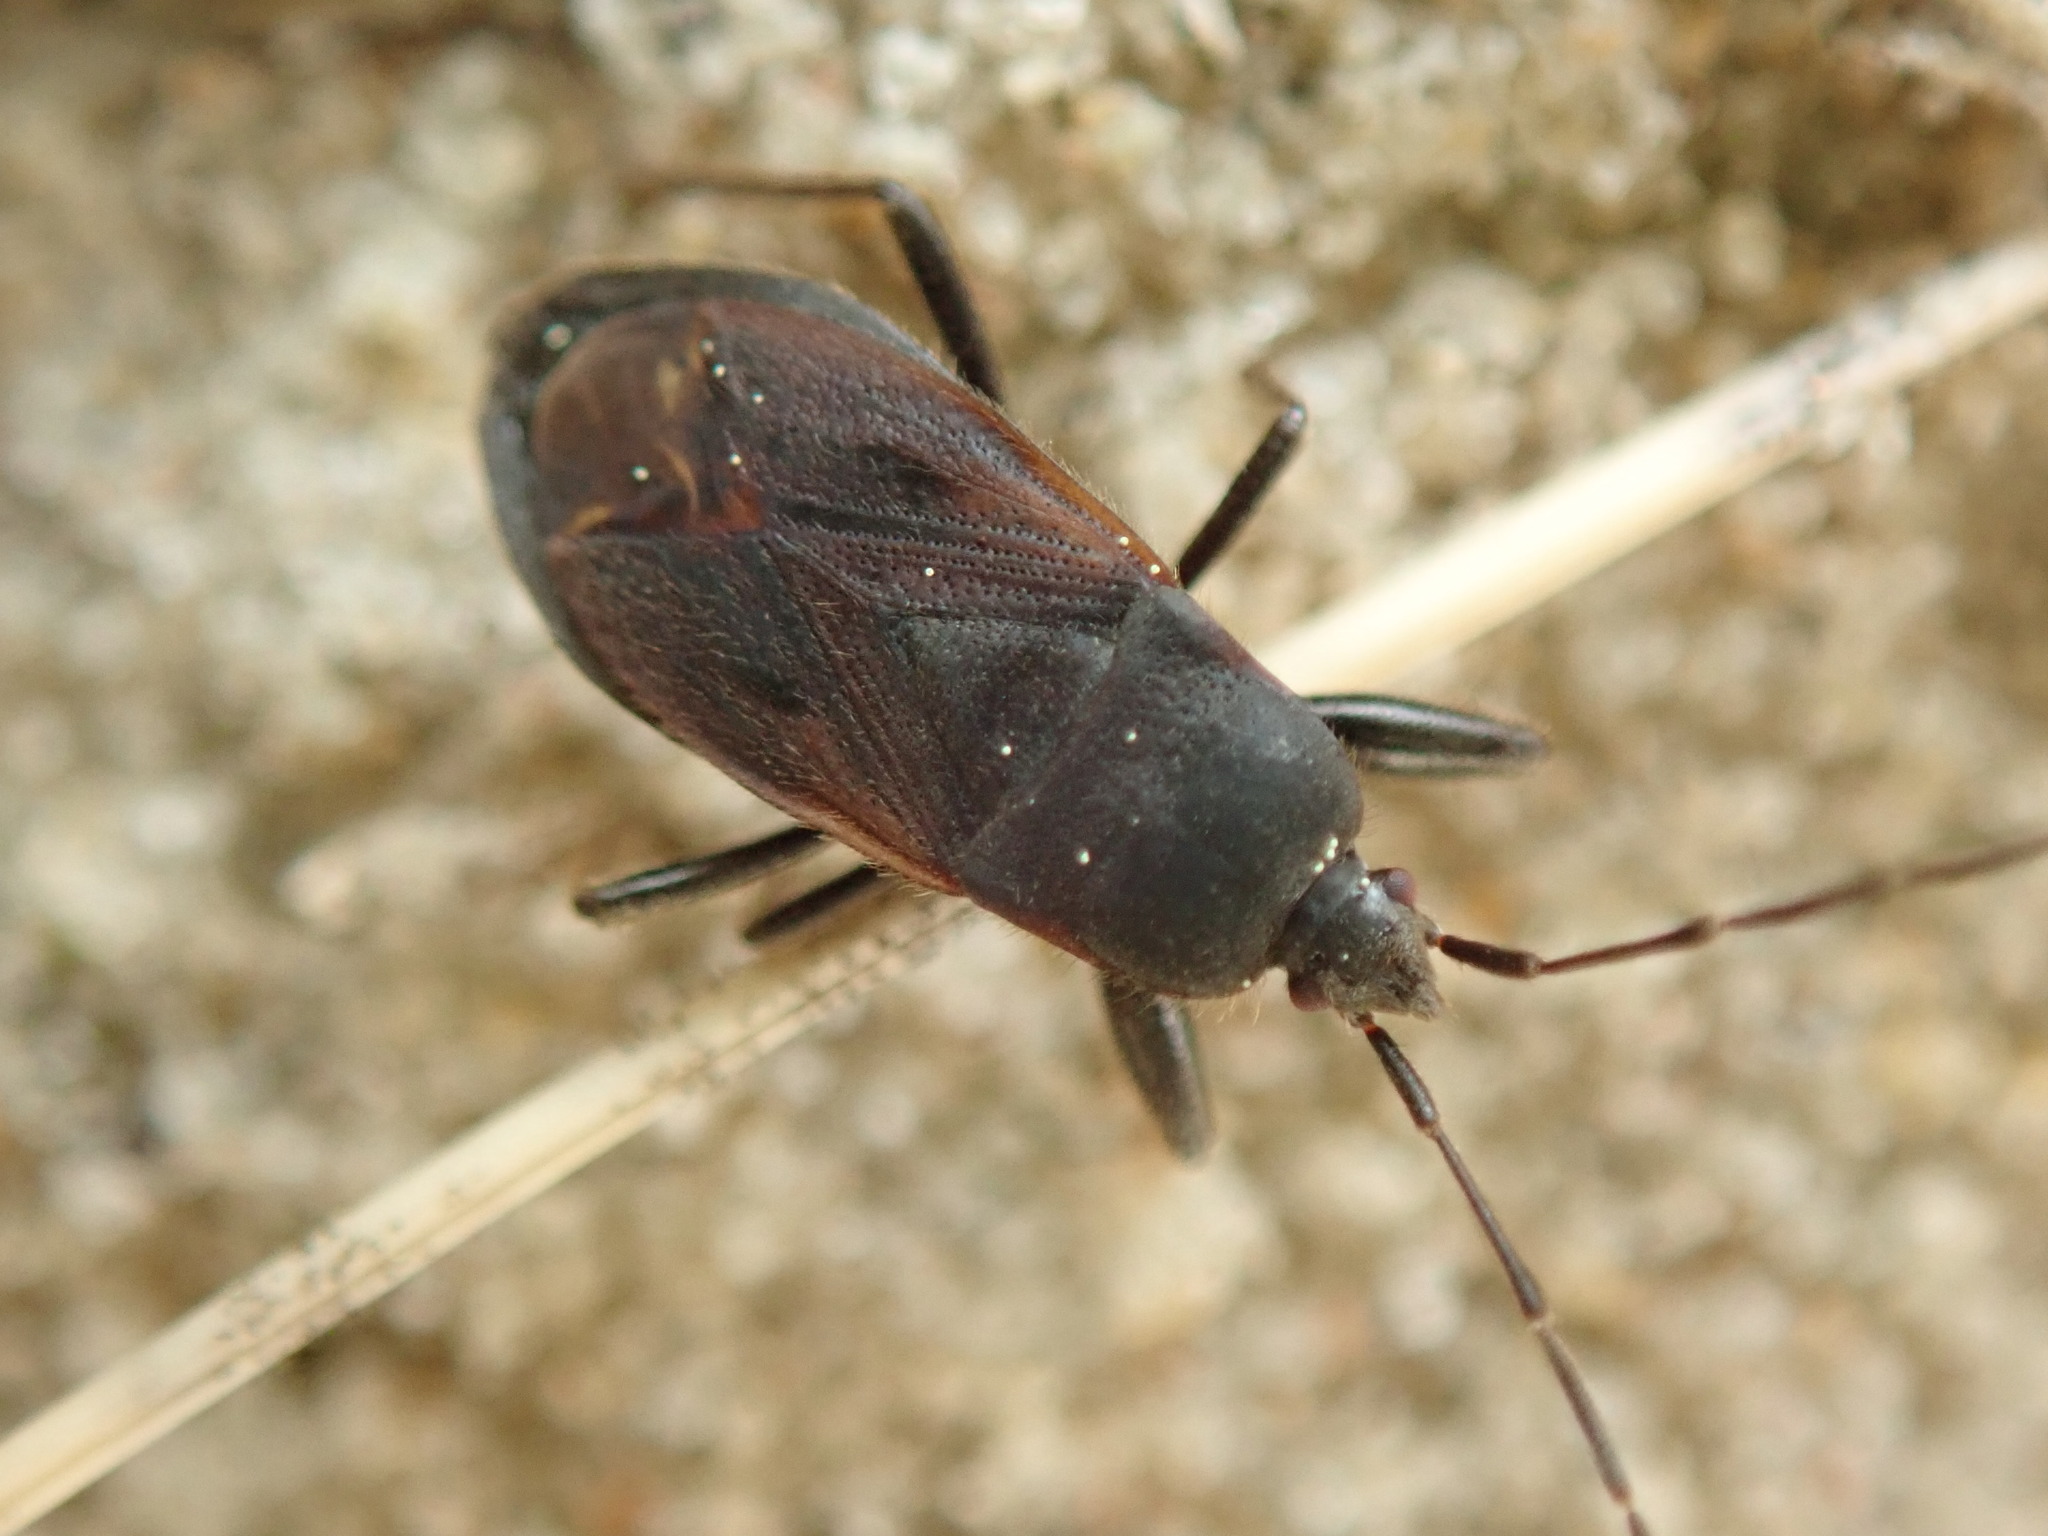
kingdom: Animalia
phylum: Arthropoda
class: Insecta
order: Hemiptera
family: Rhyparochromidae
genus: Eremocoris
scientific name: Eremocoris plebejus
